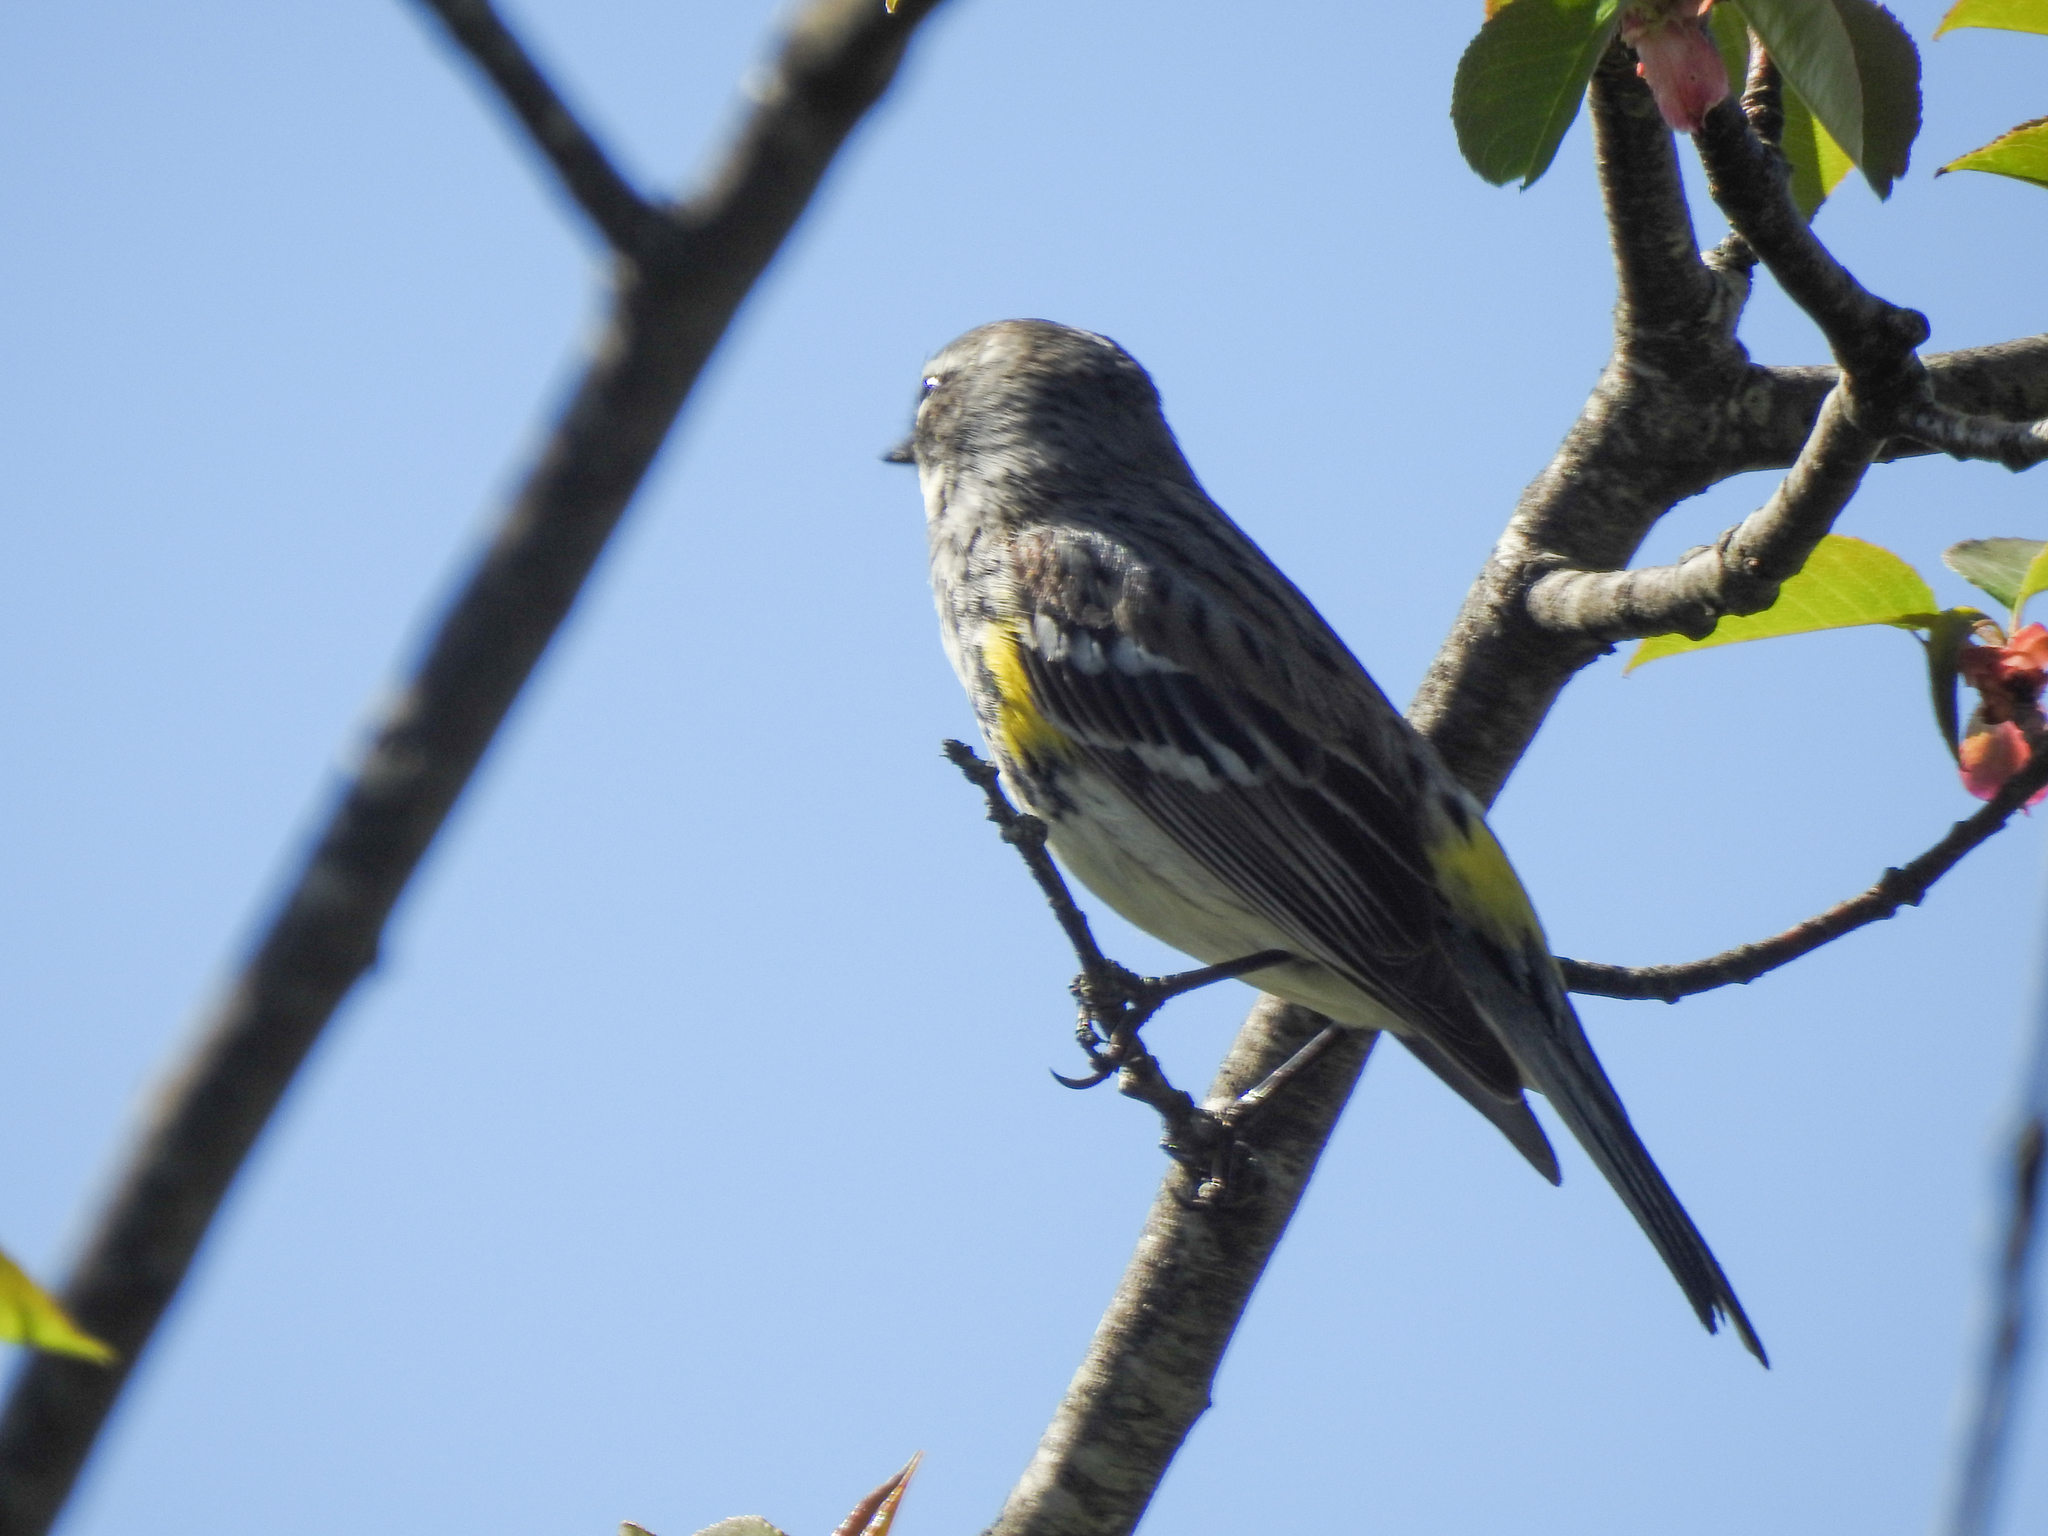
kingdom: Animalia
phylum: Chordata
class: Aves
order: Passeriformes
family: Parulidae
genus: Setophaga
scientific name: Setophaga coronata
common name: Myrtle warbler
